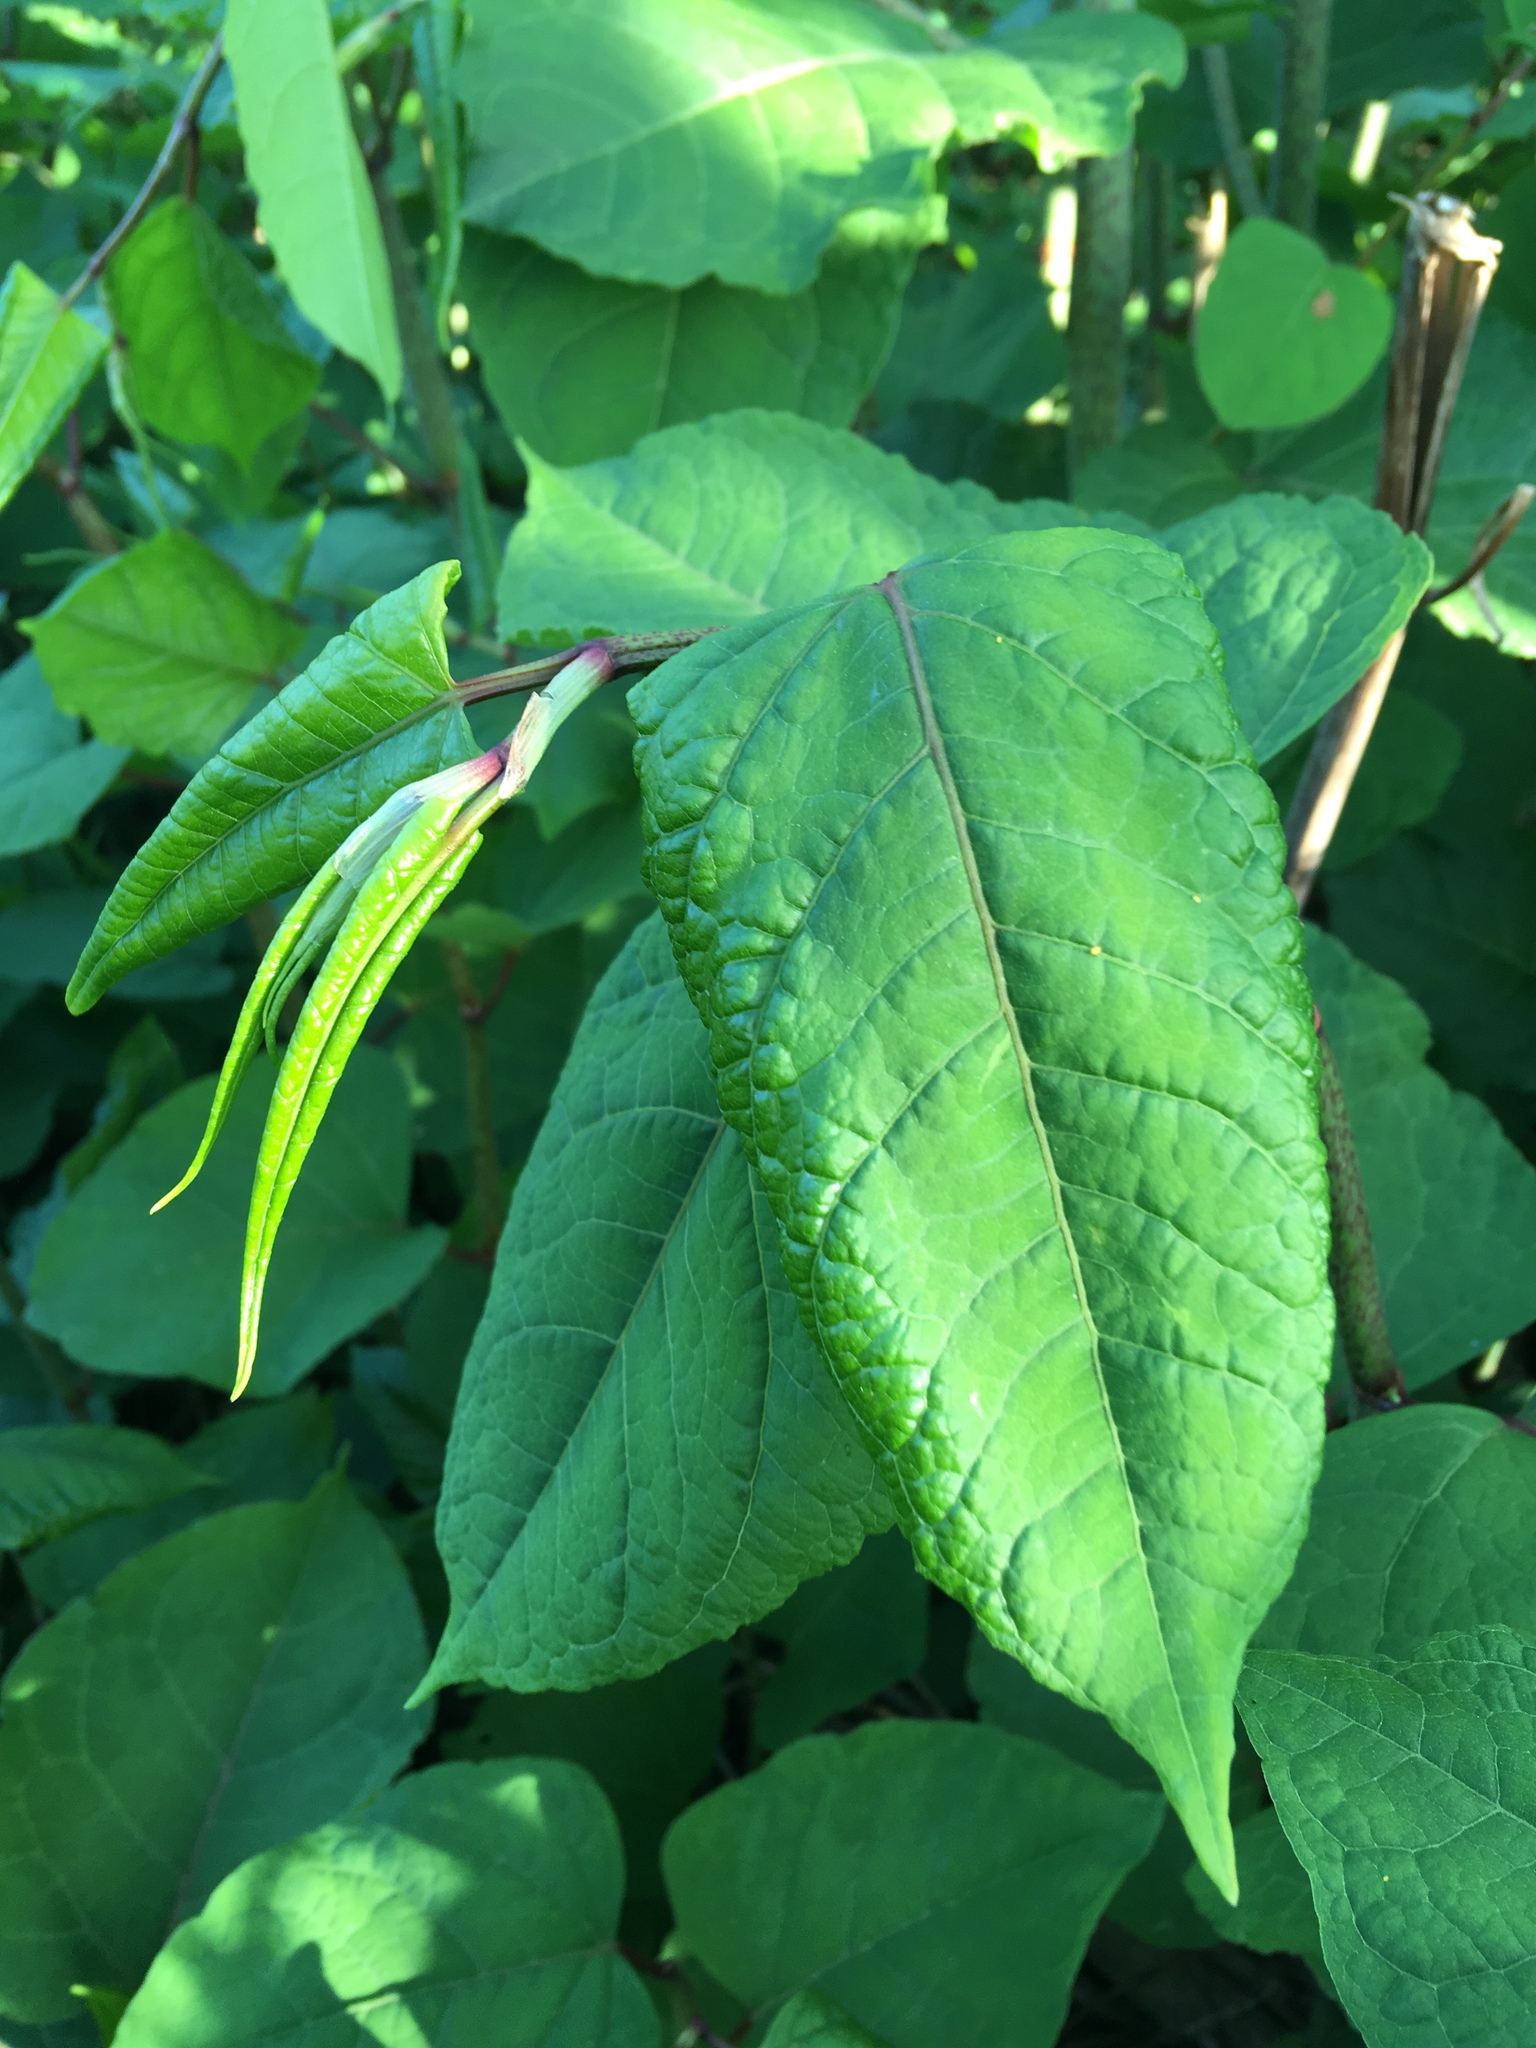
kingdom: Plantae
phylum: Tracheophyta
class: Magnoliopsida
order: Caryophyllales
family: Polygonaceae
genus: Reynoutria
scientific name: Reynoutria japonica
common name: Japanese knotweed
